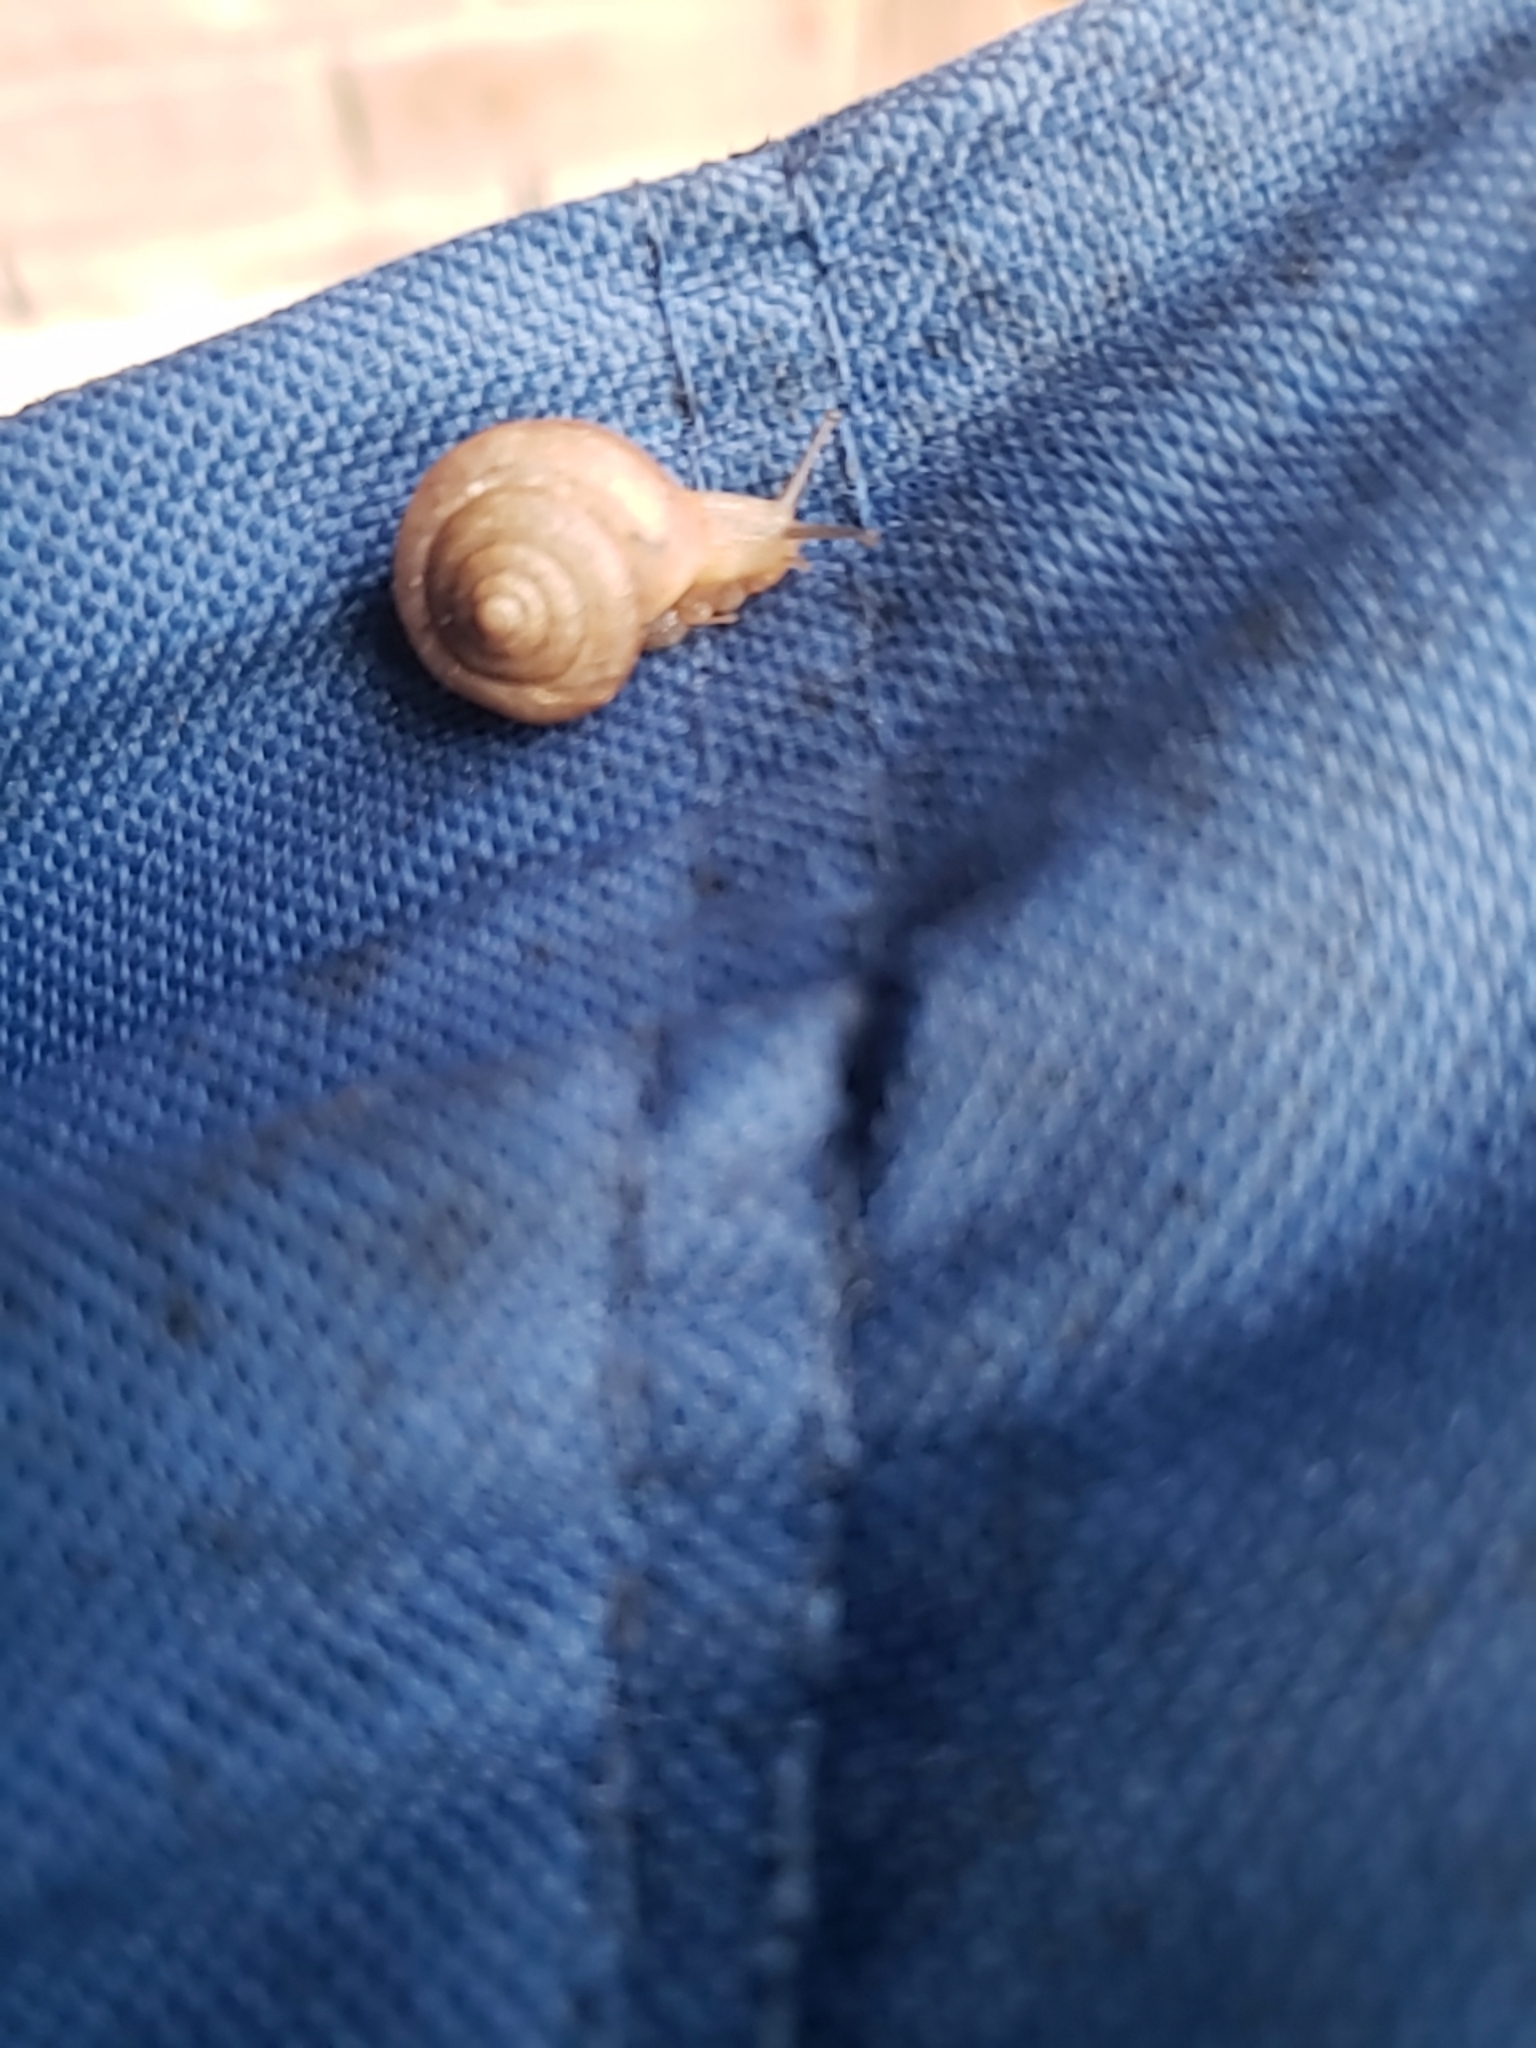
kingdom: Animalia
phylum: Mollusca
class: Gastropoda
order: Stylommatophora
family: Camaenidae
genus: Bradybaena
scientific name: Bradybaena similaris
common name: Asian trampsnail
